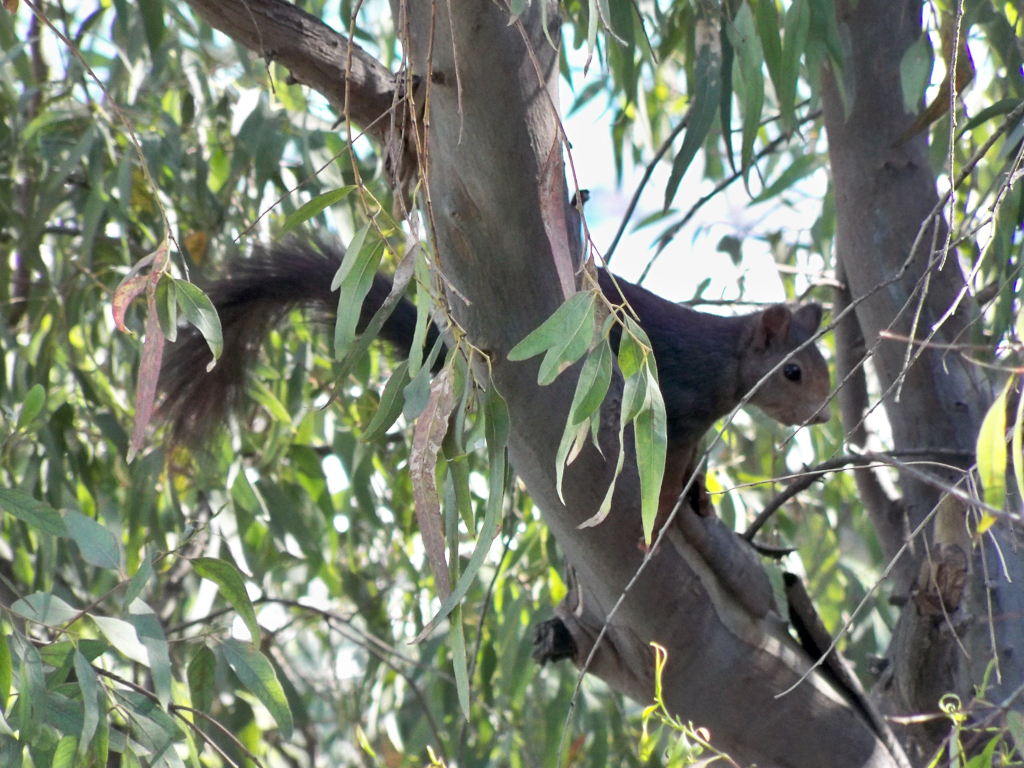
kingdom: Animalia
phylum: Chordata
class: Mammalia
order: Rodentia
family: Sciuridae
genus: Sciurus
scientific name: Sciurus vulgaris
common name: Eurasian red squirrel
